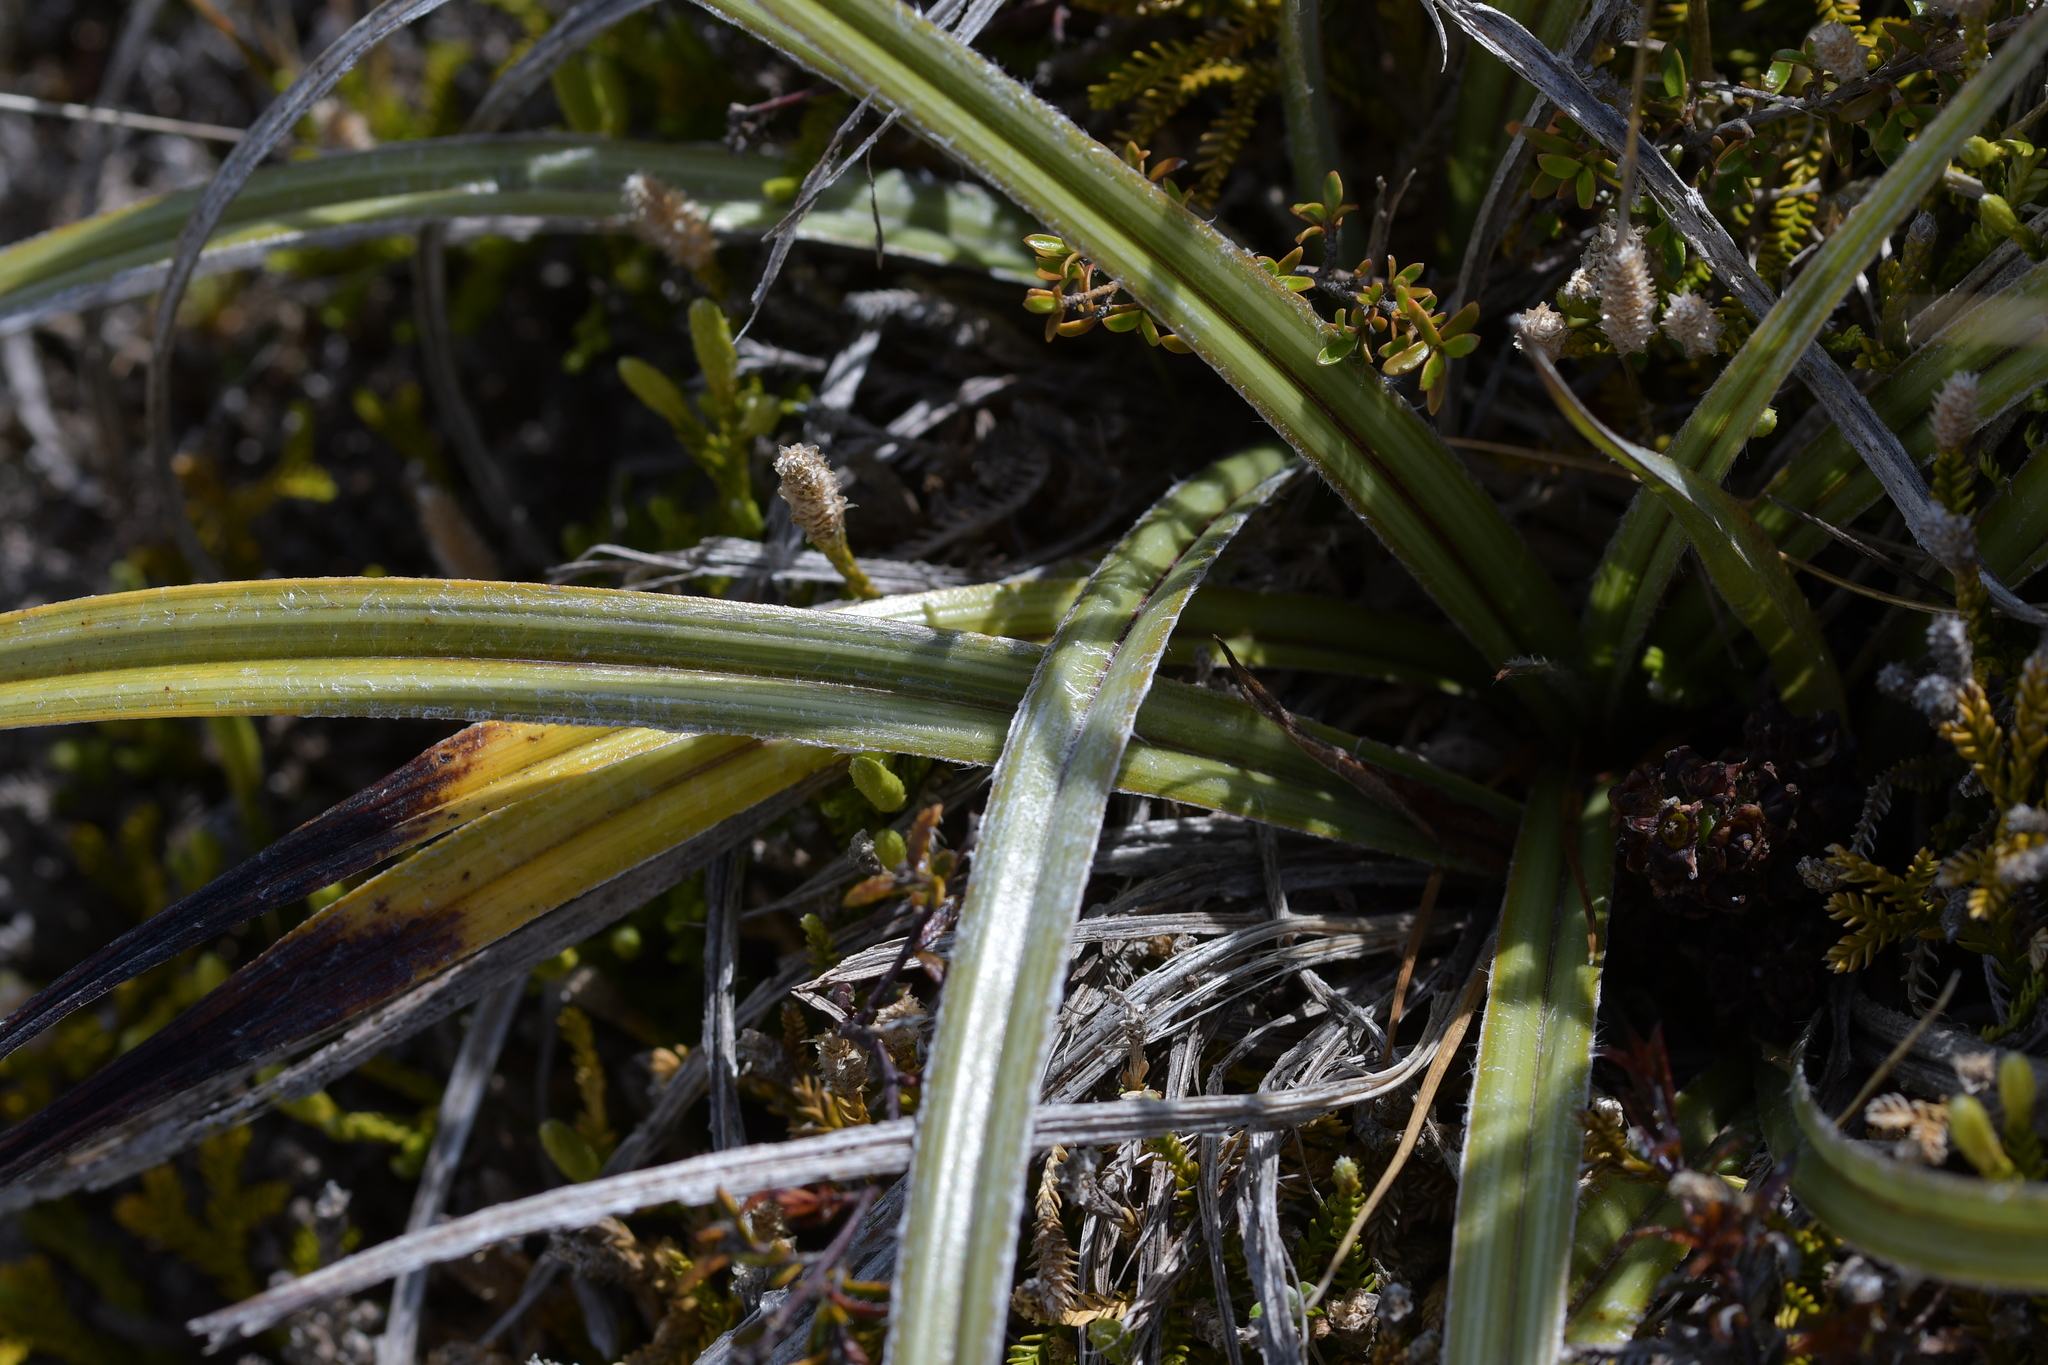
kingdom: Plantae
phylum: Tracheophyta
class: Liliopsida
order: Asparagales
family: Asteliaceae
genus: Astelia
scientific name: Astelia nervosa
